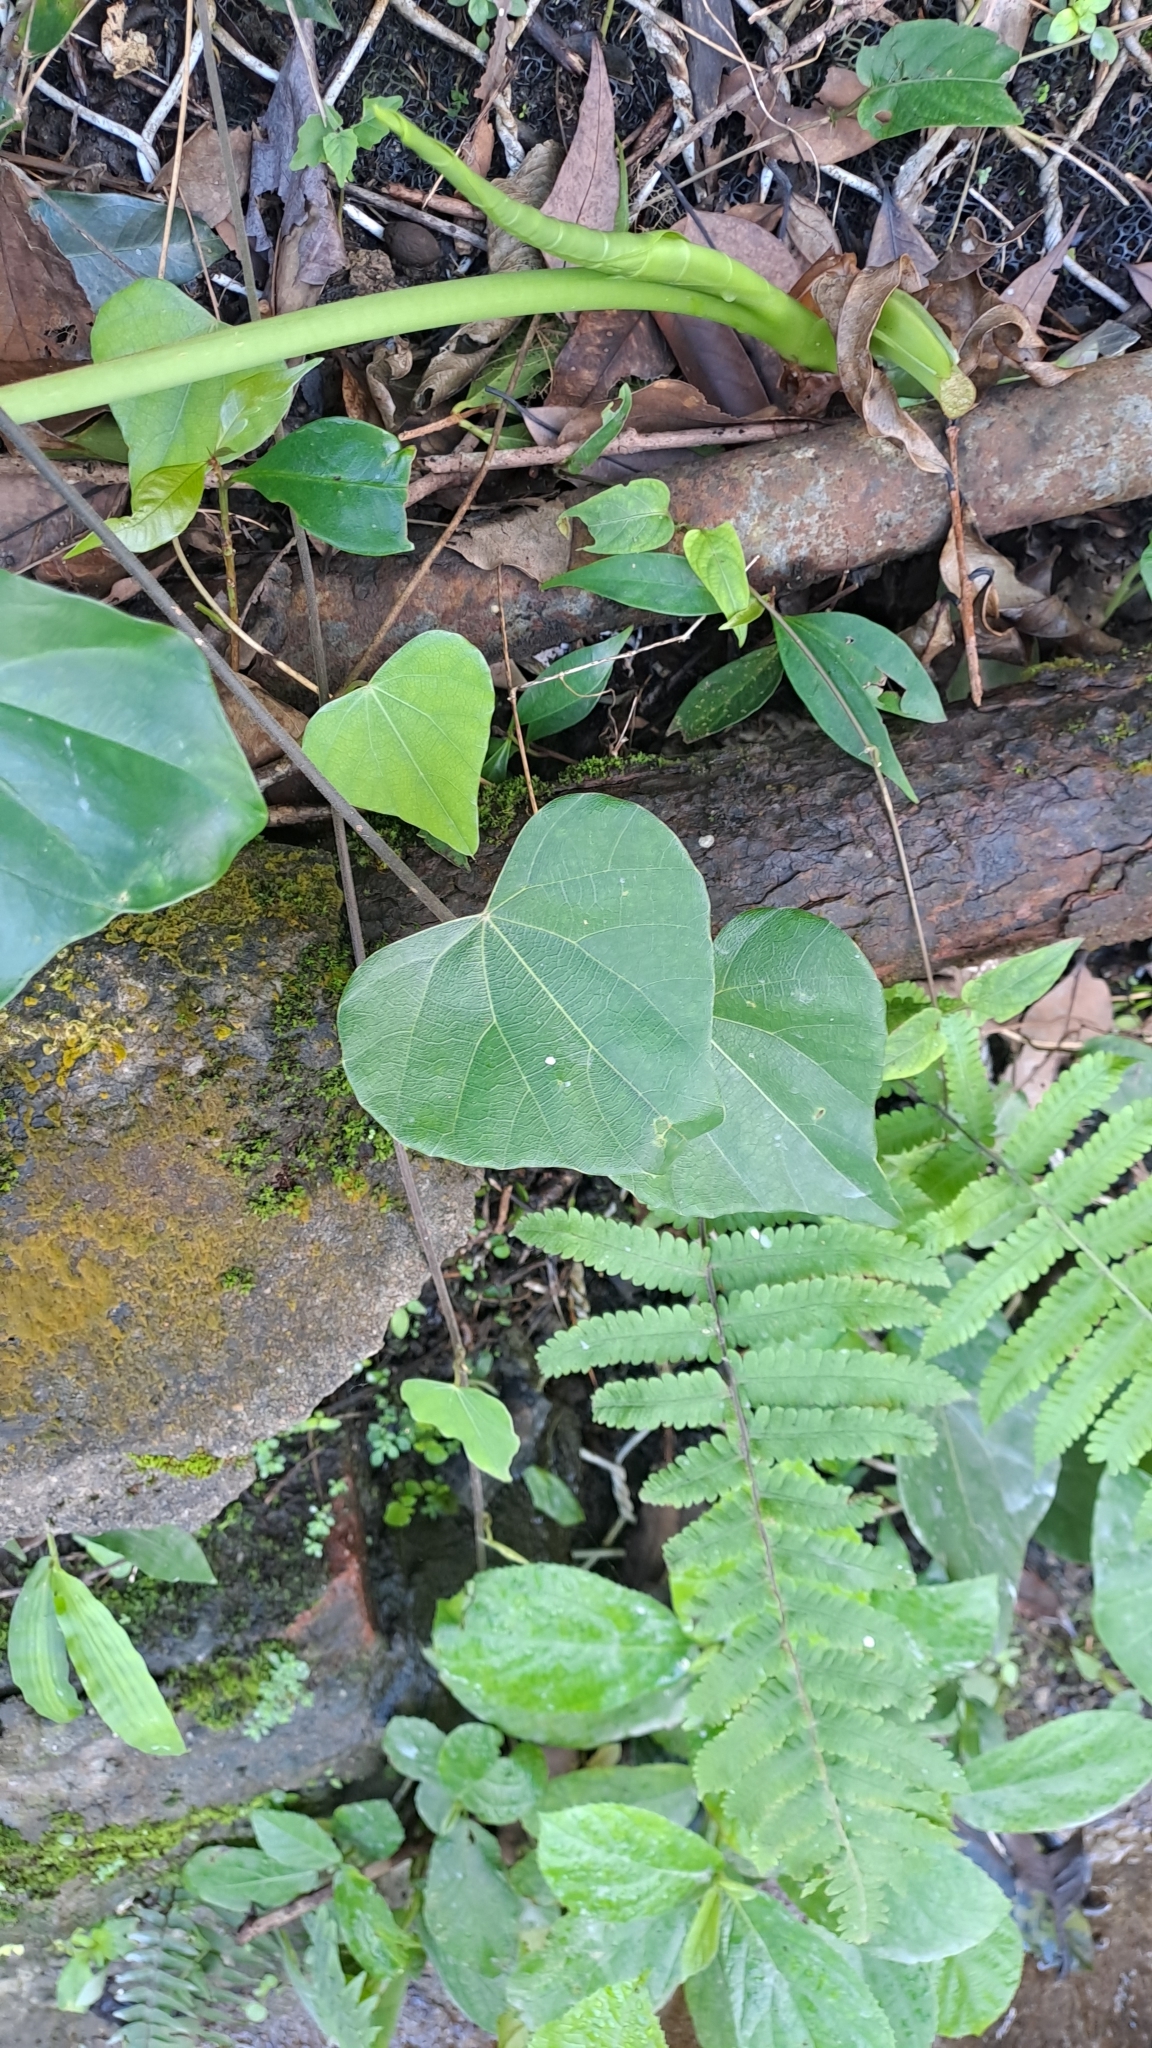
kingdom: Plantae
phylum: Tracheophyta
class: Magnoliopsida
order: Ranunculales
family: Menispermaceae
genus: Pericampylus
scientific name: Pericampylus glaucus
